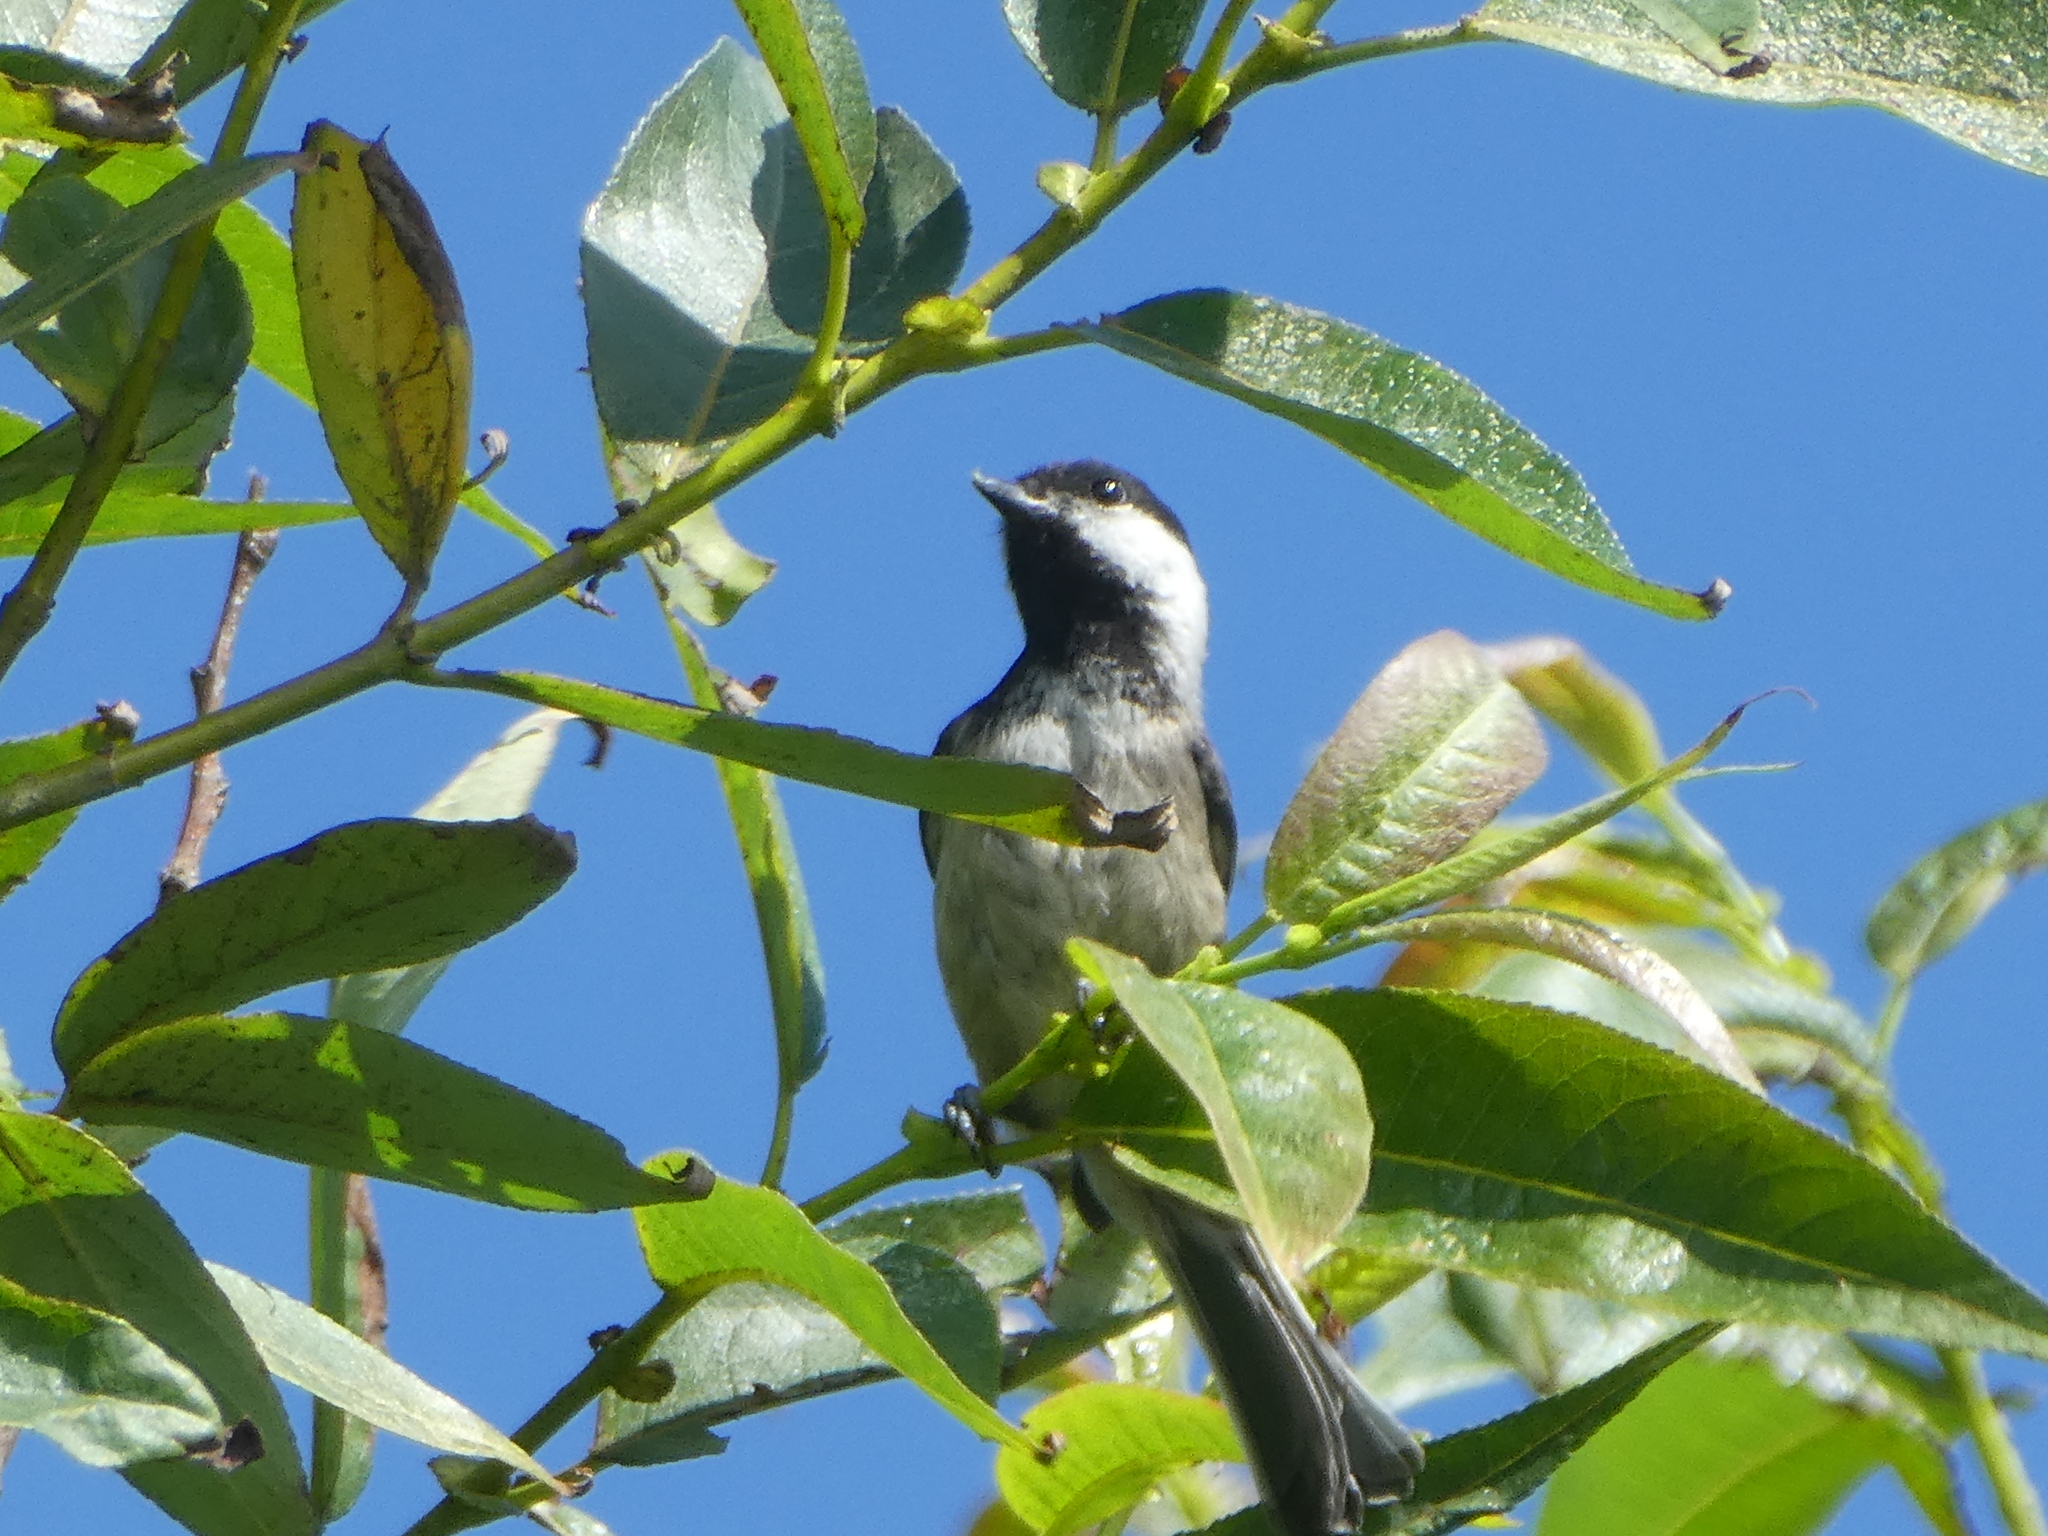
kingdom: Animalia
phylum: Chordata
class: Aves
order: Passeriformes
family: Paridae
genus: Poecile
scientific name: Poecile atricapillus
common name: Black-capped chickadee
